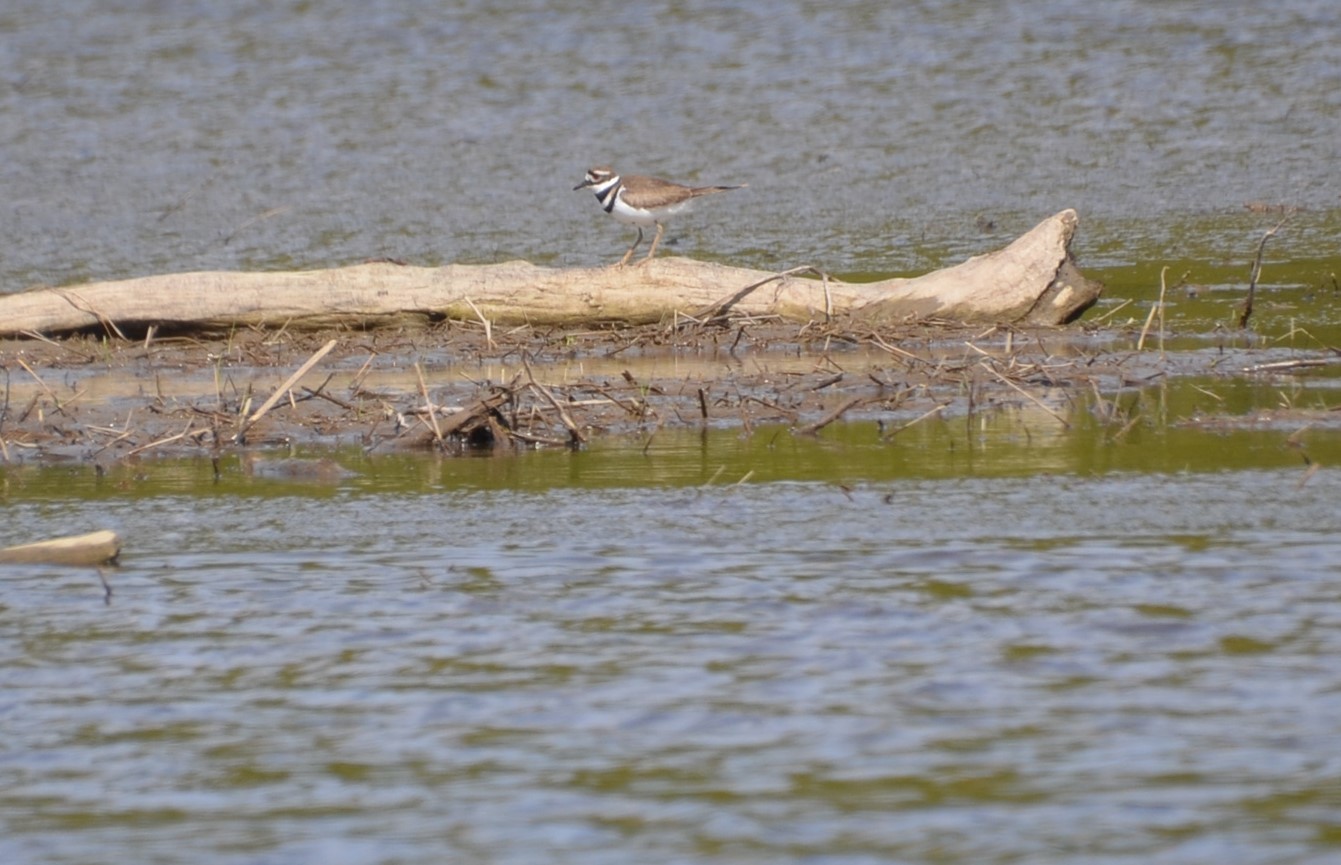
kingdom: Animalia
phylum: Chordata
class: Aves
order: Charadriiformes
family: Charadriidae
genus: Charadrius
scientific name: Charadrius vociferus
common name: Killdeer
